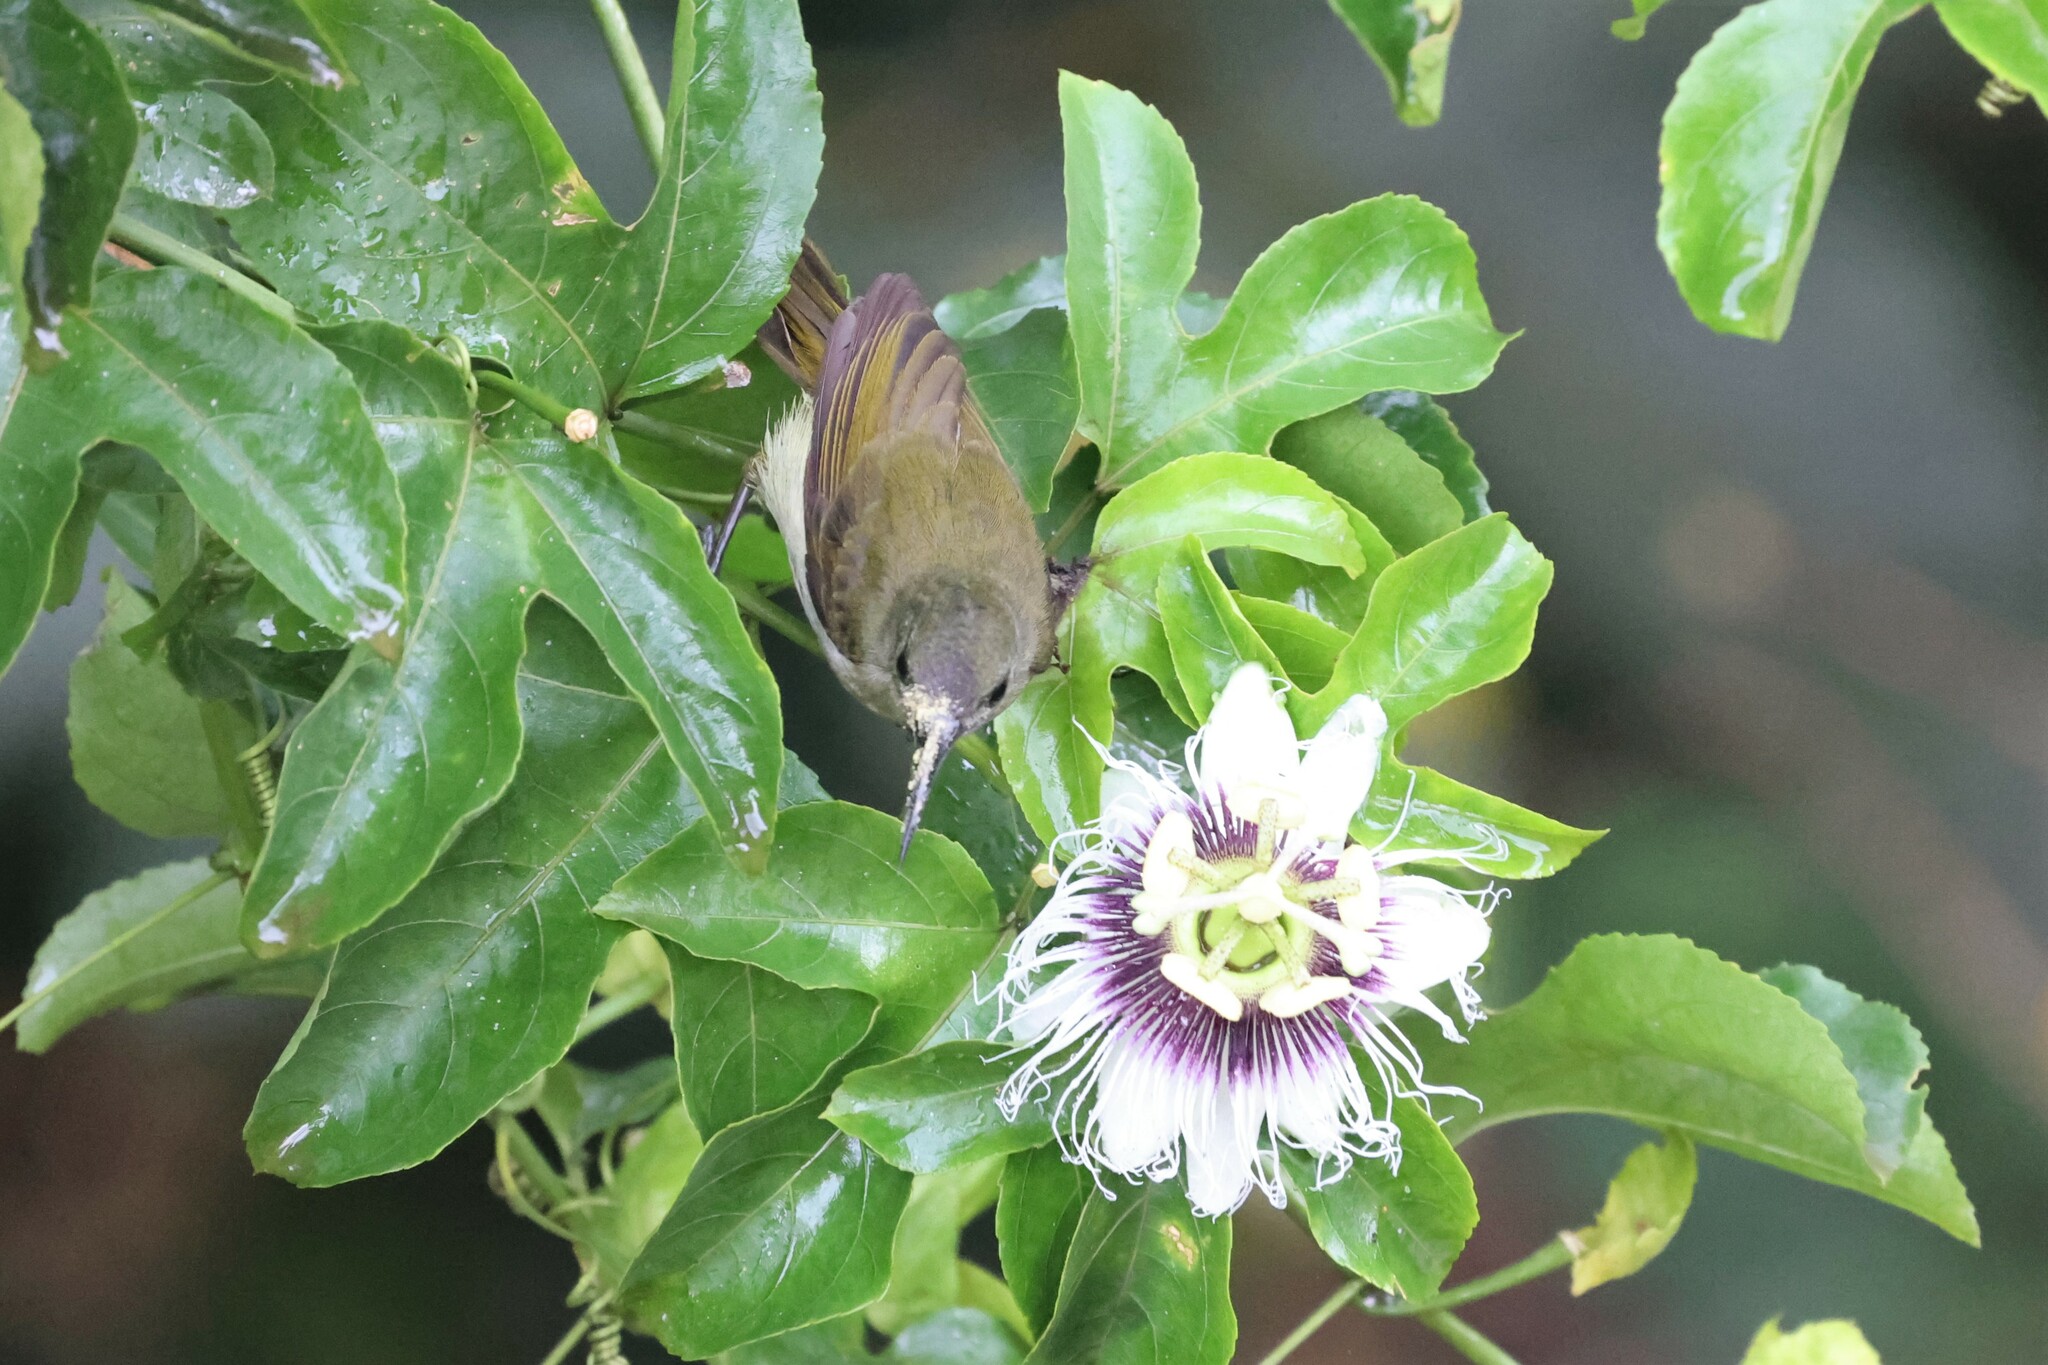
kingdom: Animalia
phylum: Chordata
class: Aves
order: Passeriformes
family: Nectariniidae
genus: Cyanomitra
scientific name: Cyanomitra olivacea
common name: Olive sunbird
